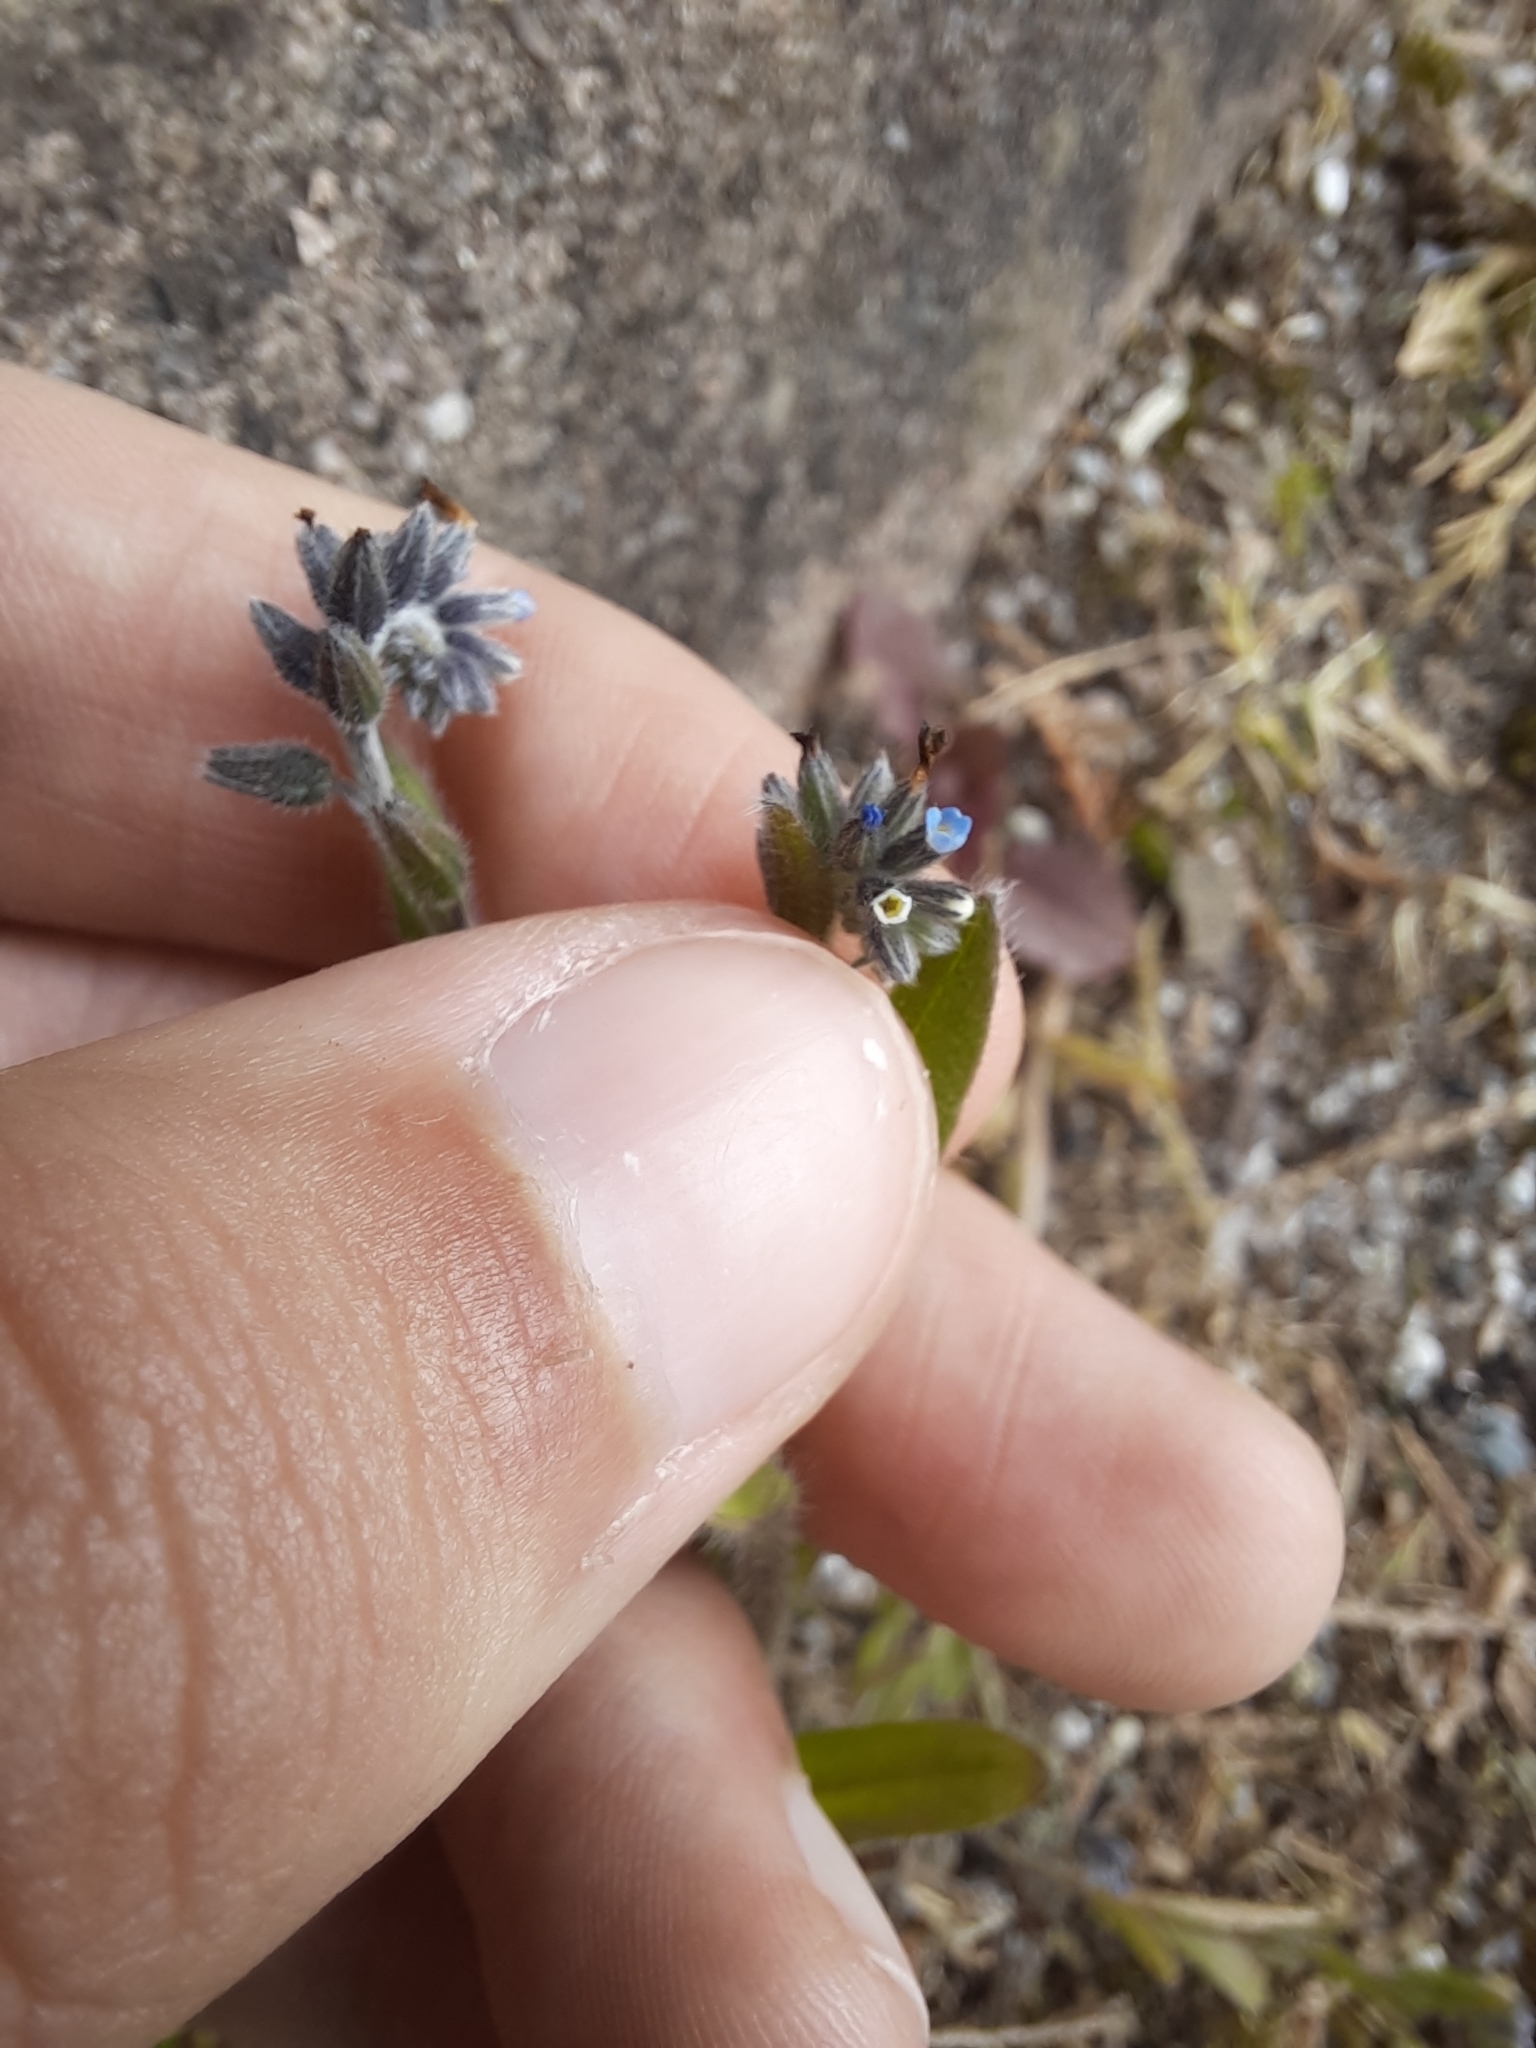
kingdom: Plantae
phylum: Tracheophyta
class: Magnoliopsida
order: Boraginales
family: Boraginaceae
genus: Myosotis
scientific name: Myosotis discolor
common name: Changing forget-me-not
